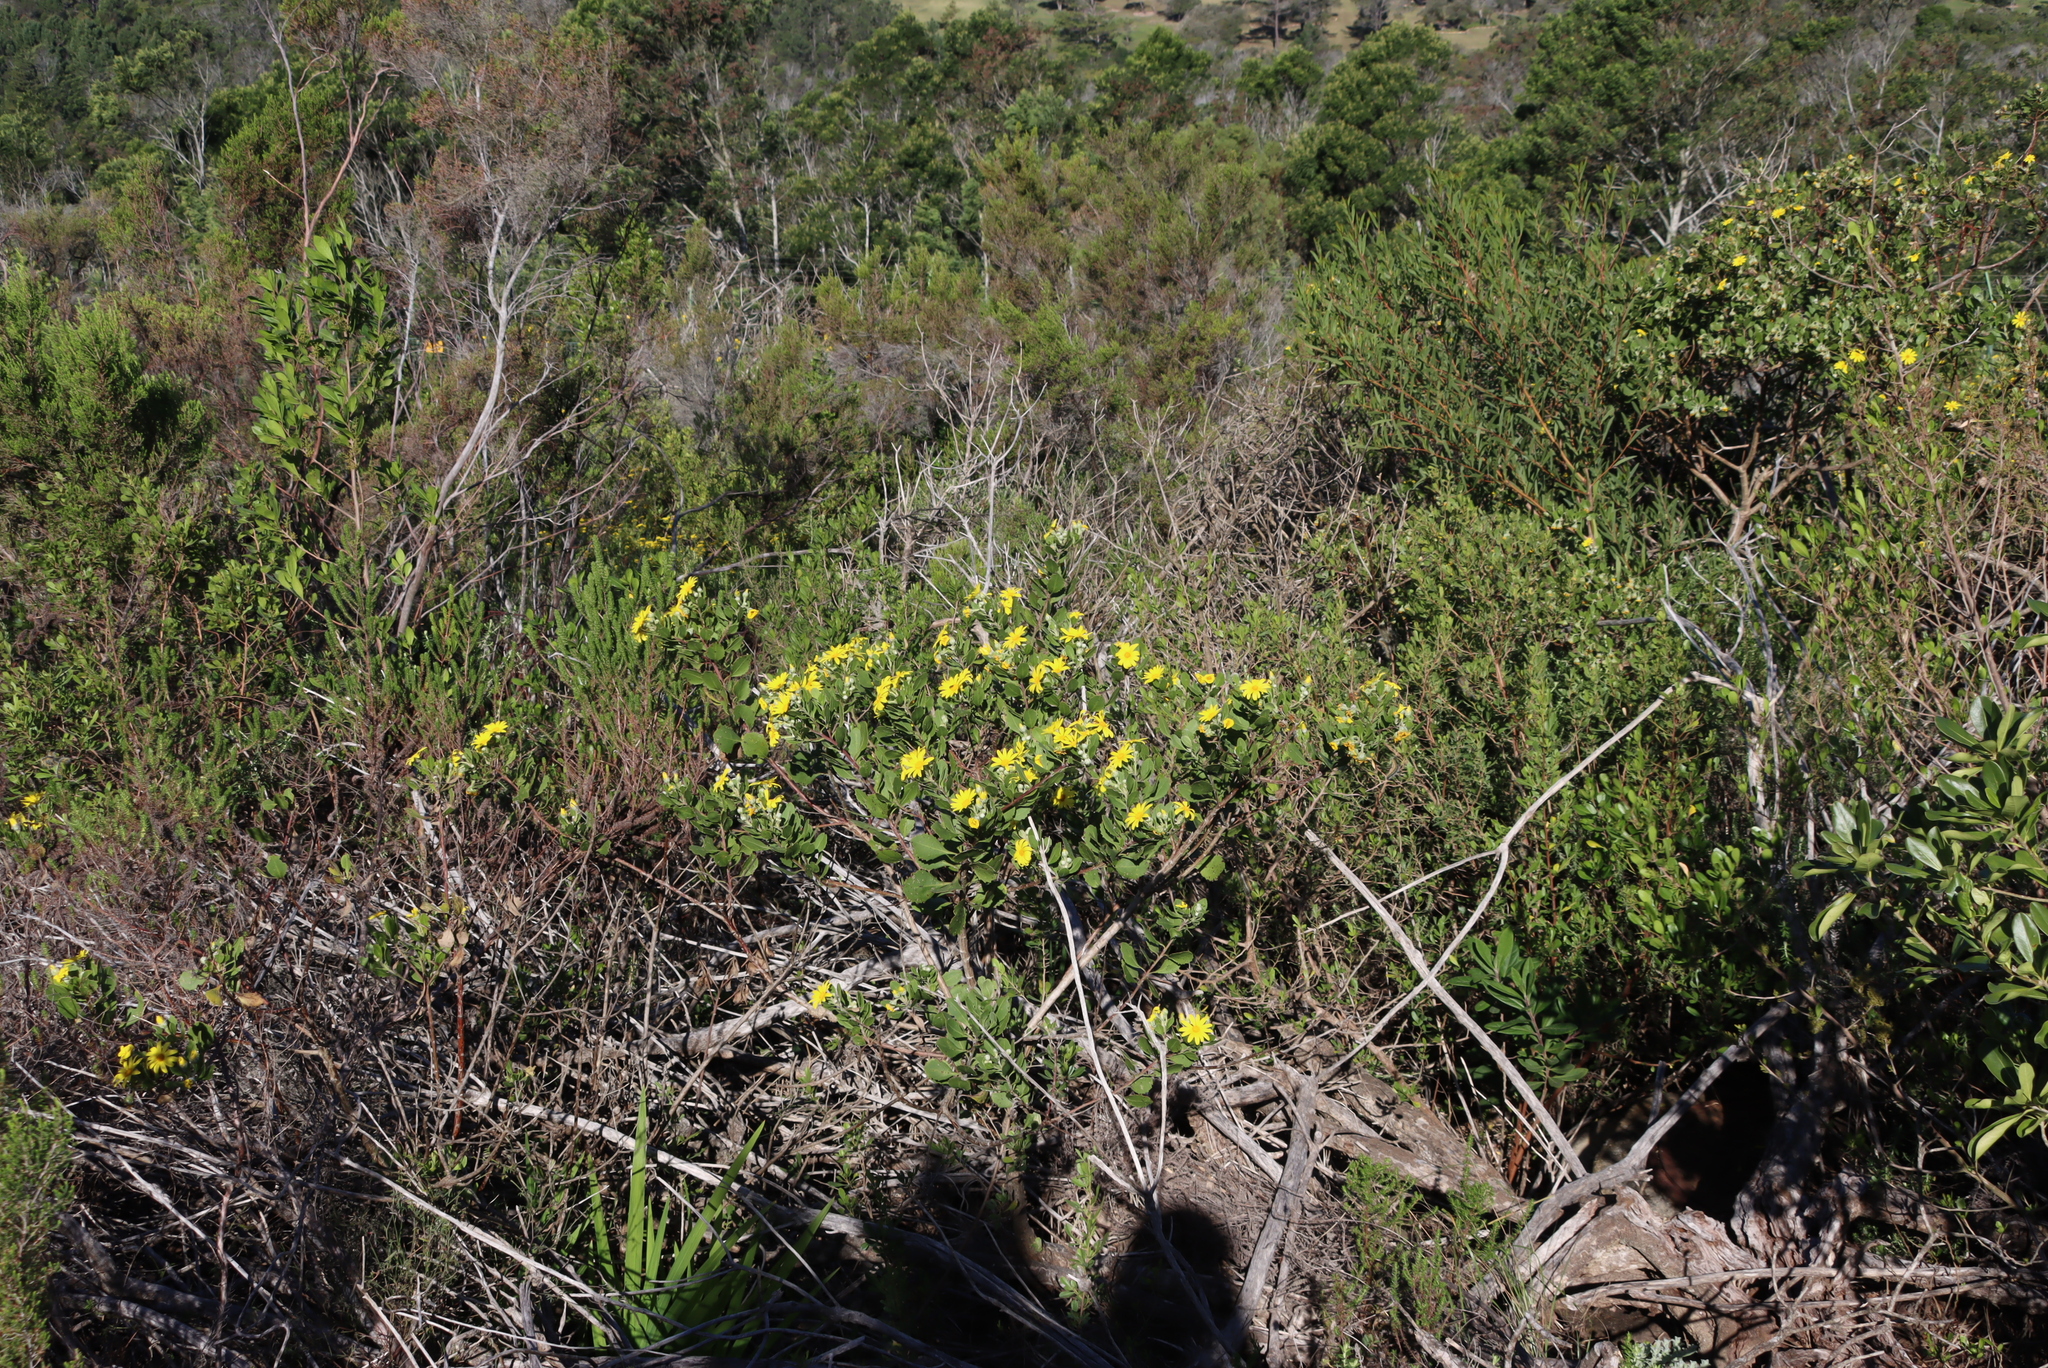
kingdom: Plantae
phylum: Tracheophyta
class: Magnoliopsida
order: Asterales
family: Asteraceae
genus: Osteospermum
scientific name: Osteospermum moniliferum
